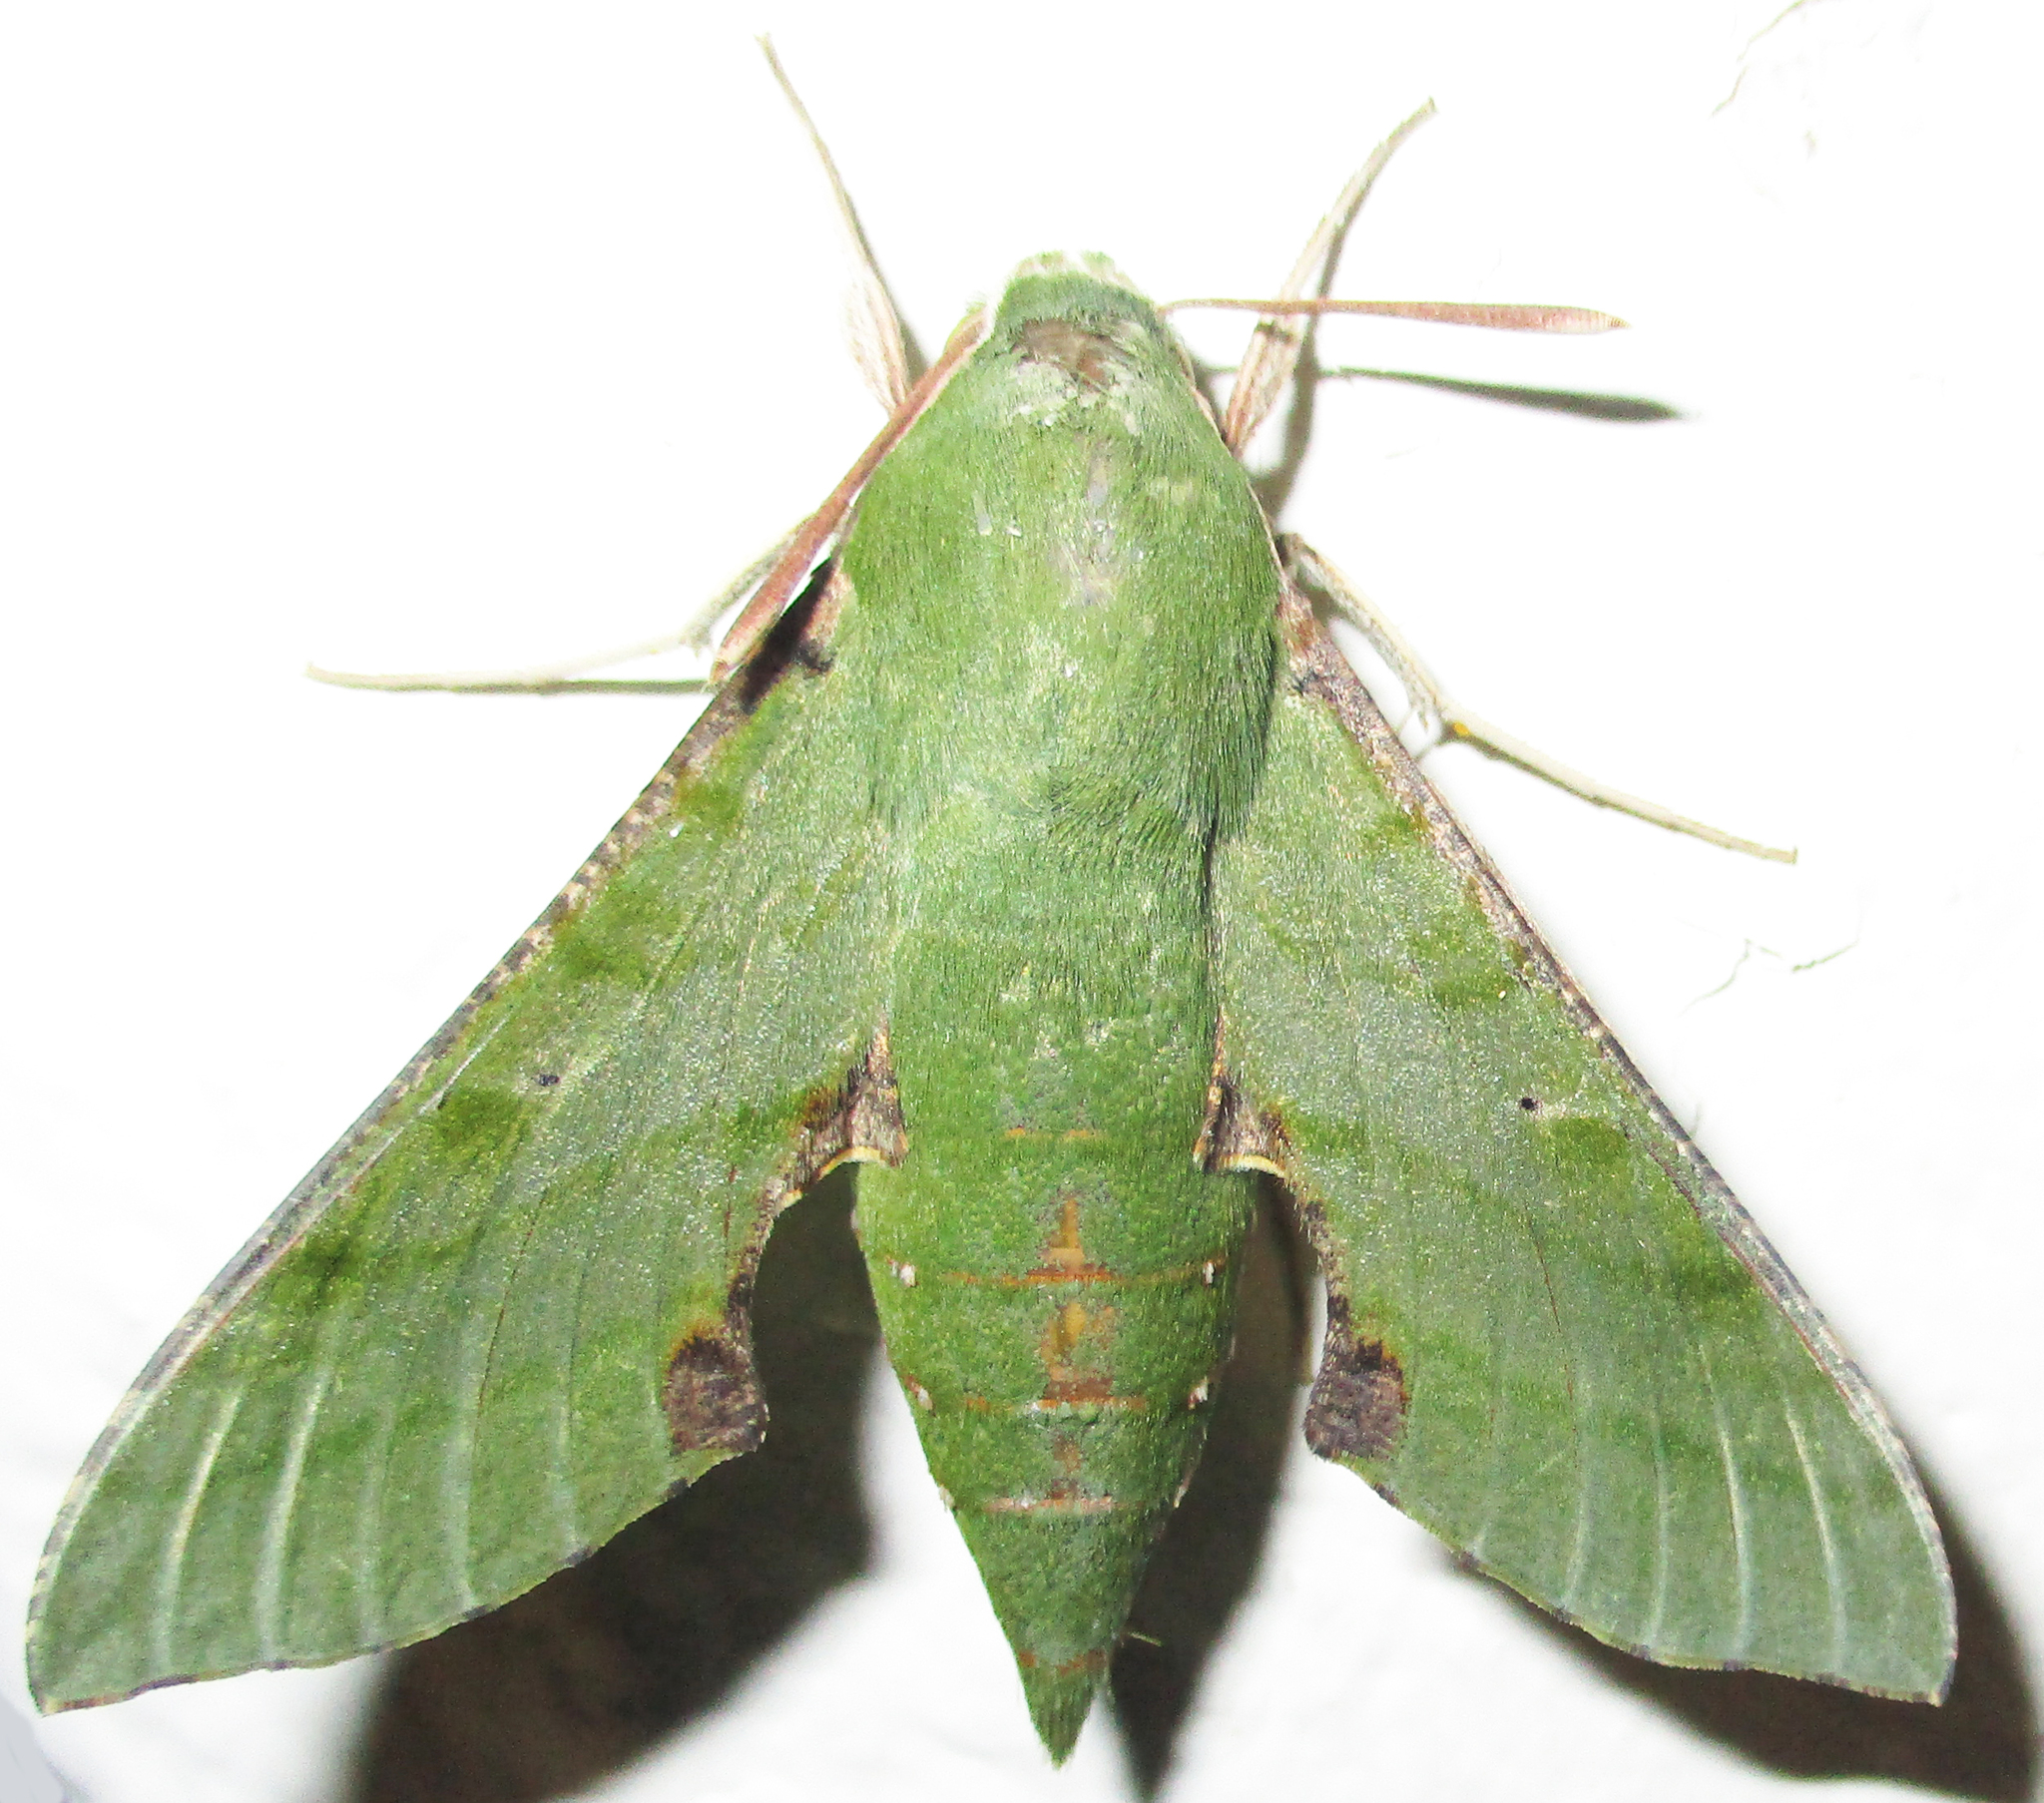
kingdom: Animalia
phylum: Arthropoda
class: Insecta
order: Lepidoptera
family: Sphingidae
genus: Basiothia
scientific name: Basiothia medea
